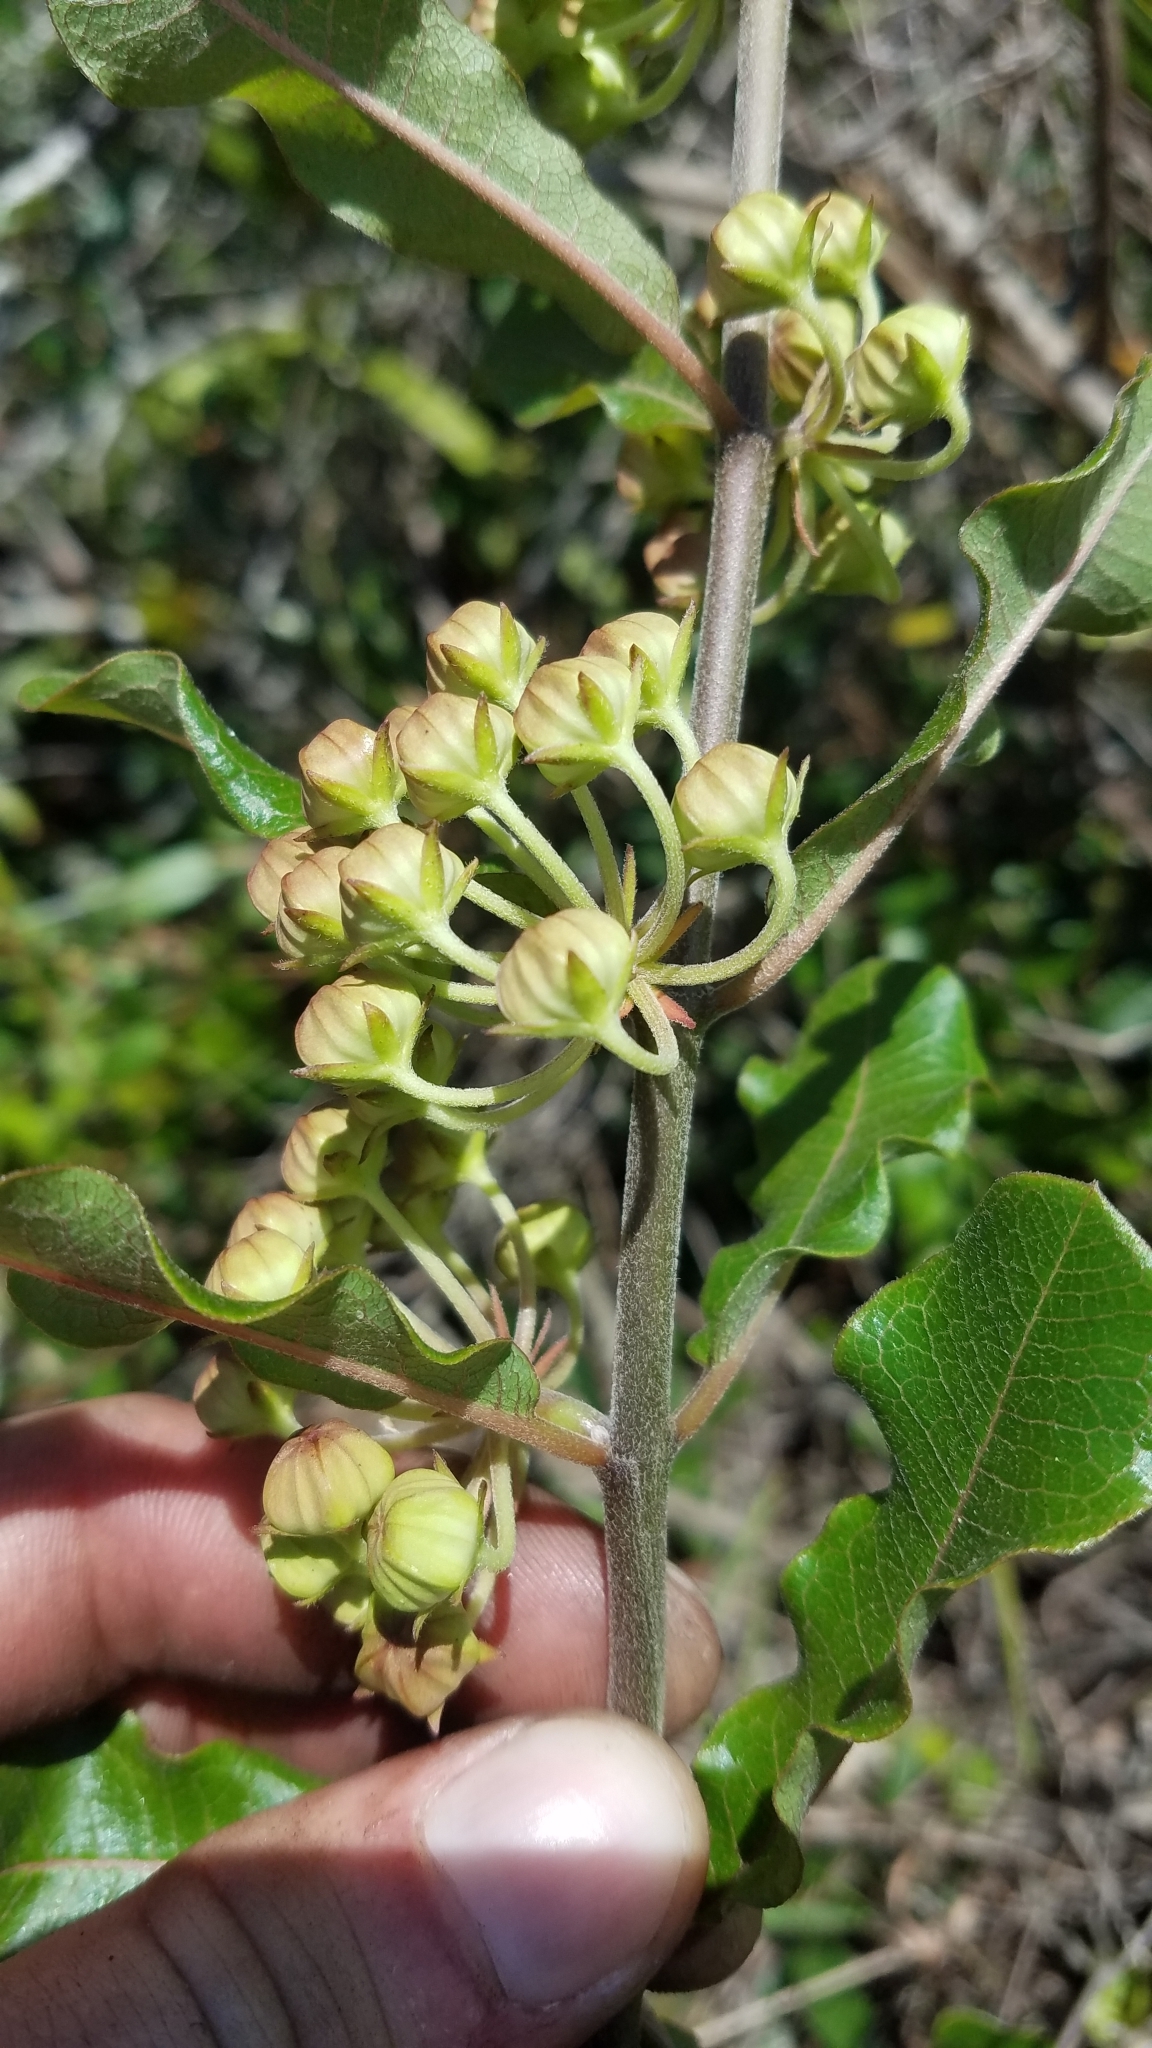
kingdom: Plantae
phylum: Tracheophyta
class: Magnoliopsida
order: Gentianales
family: Apocynaceae
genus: Asclepias
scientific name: Asclepias tomentosa
